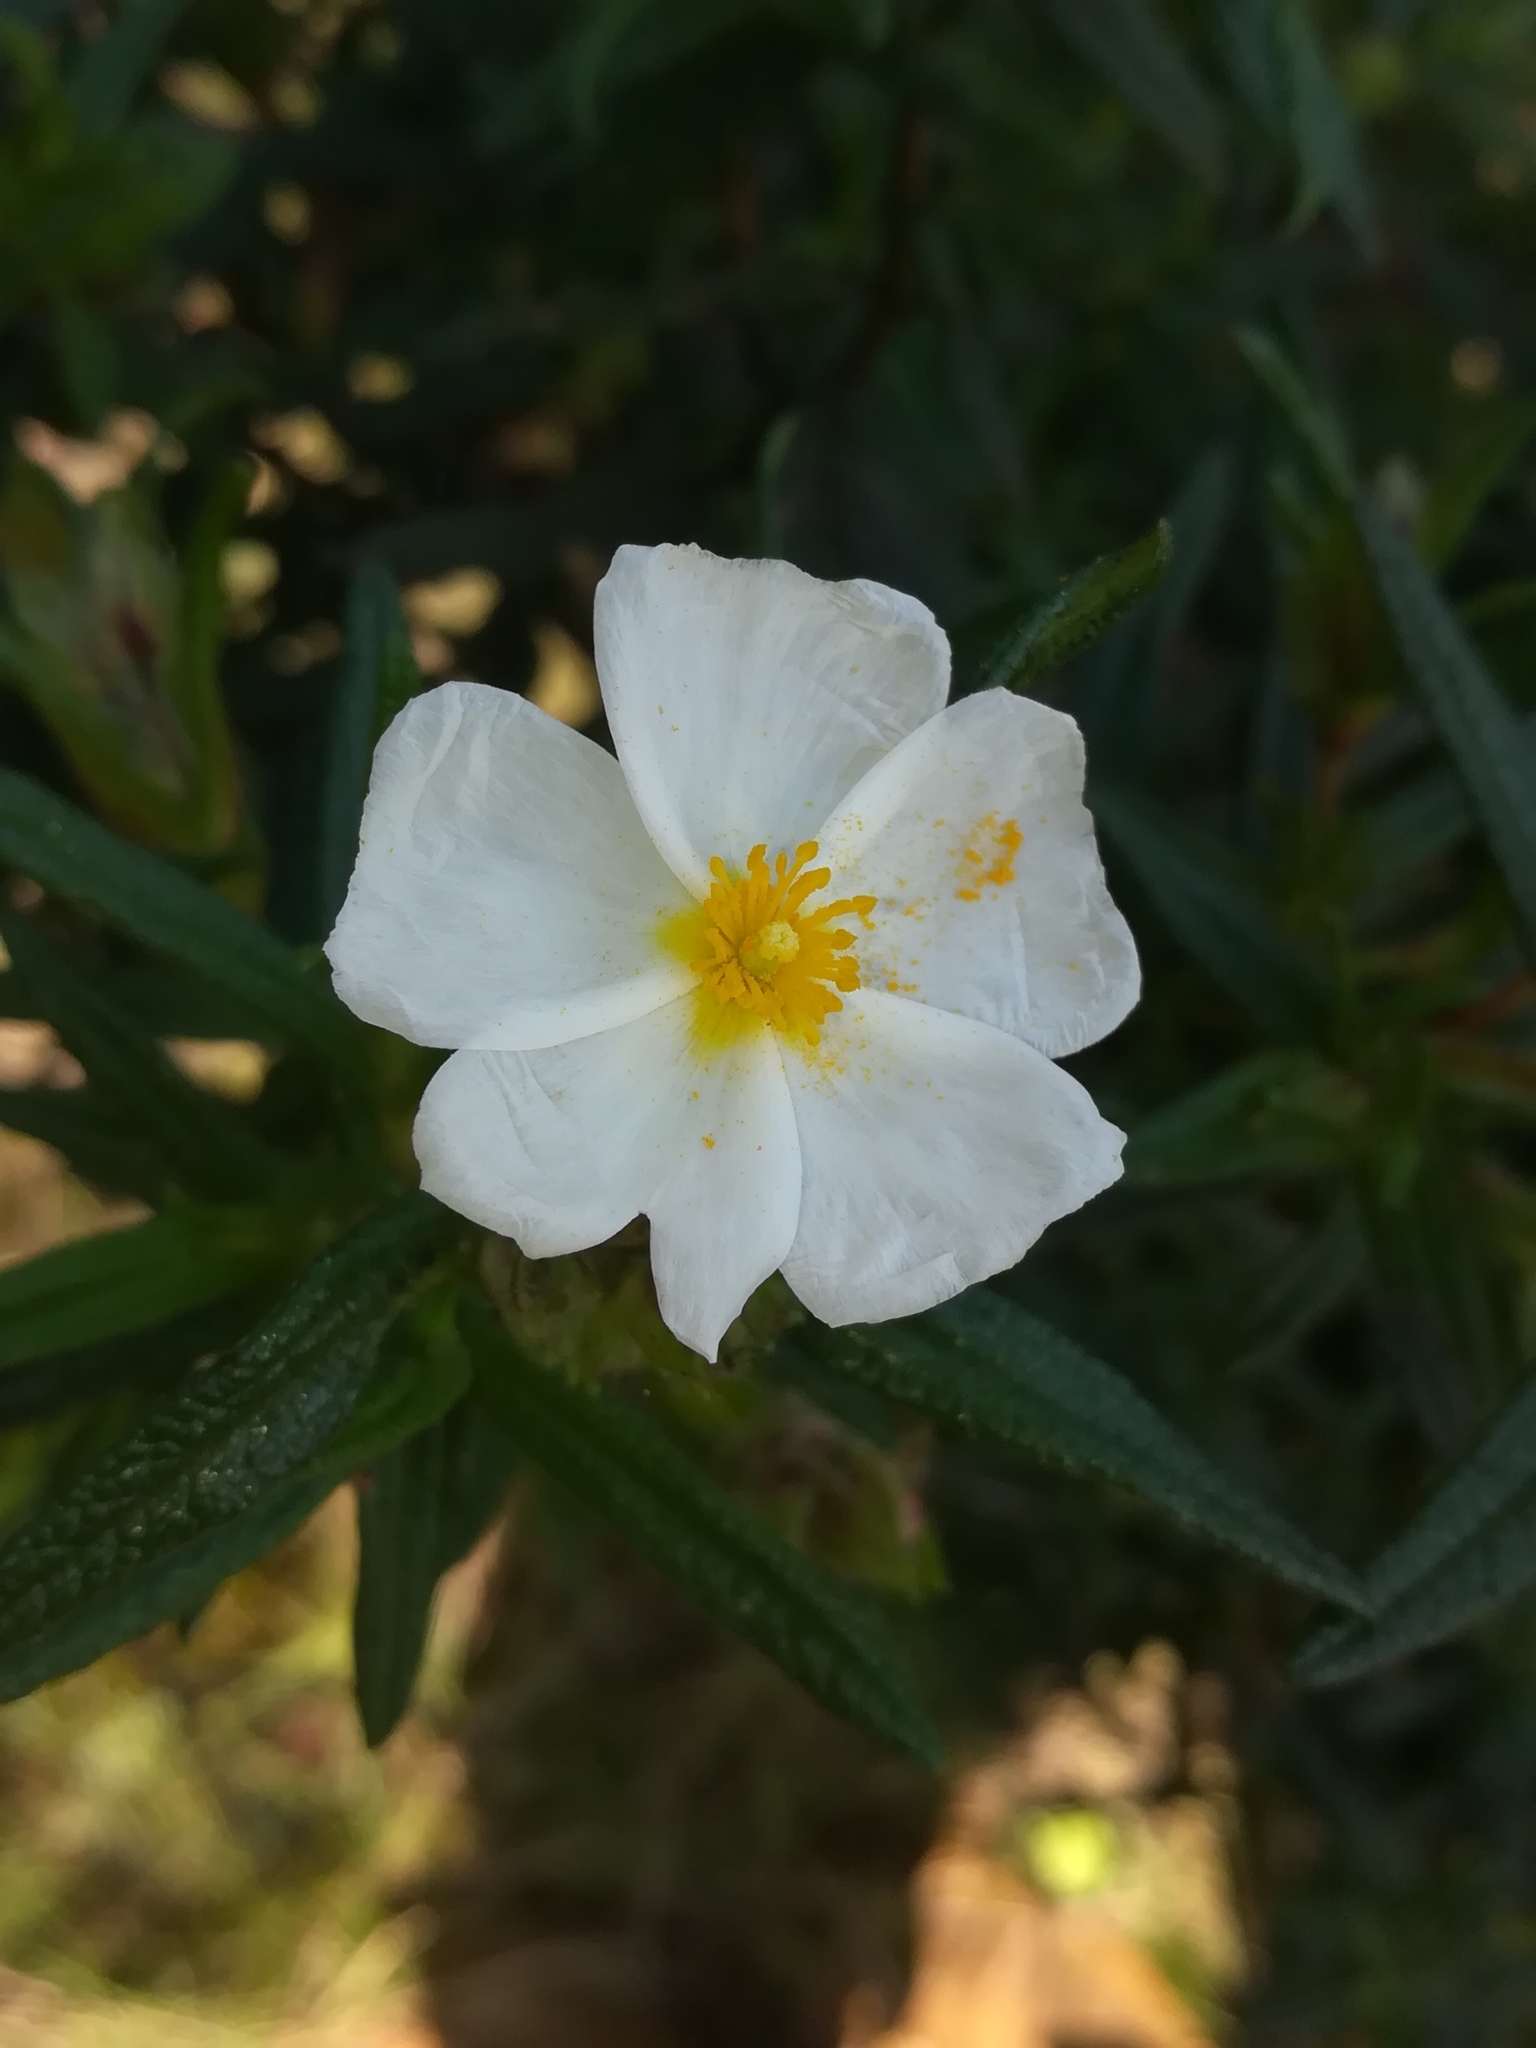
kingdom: Plantae
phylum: Tracheophyta
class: Magnoliopsida
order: Malvales
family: Cistaceae
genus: Cistus
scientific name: Cistus monspeliensis
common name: Montpelier cistus
